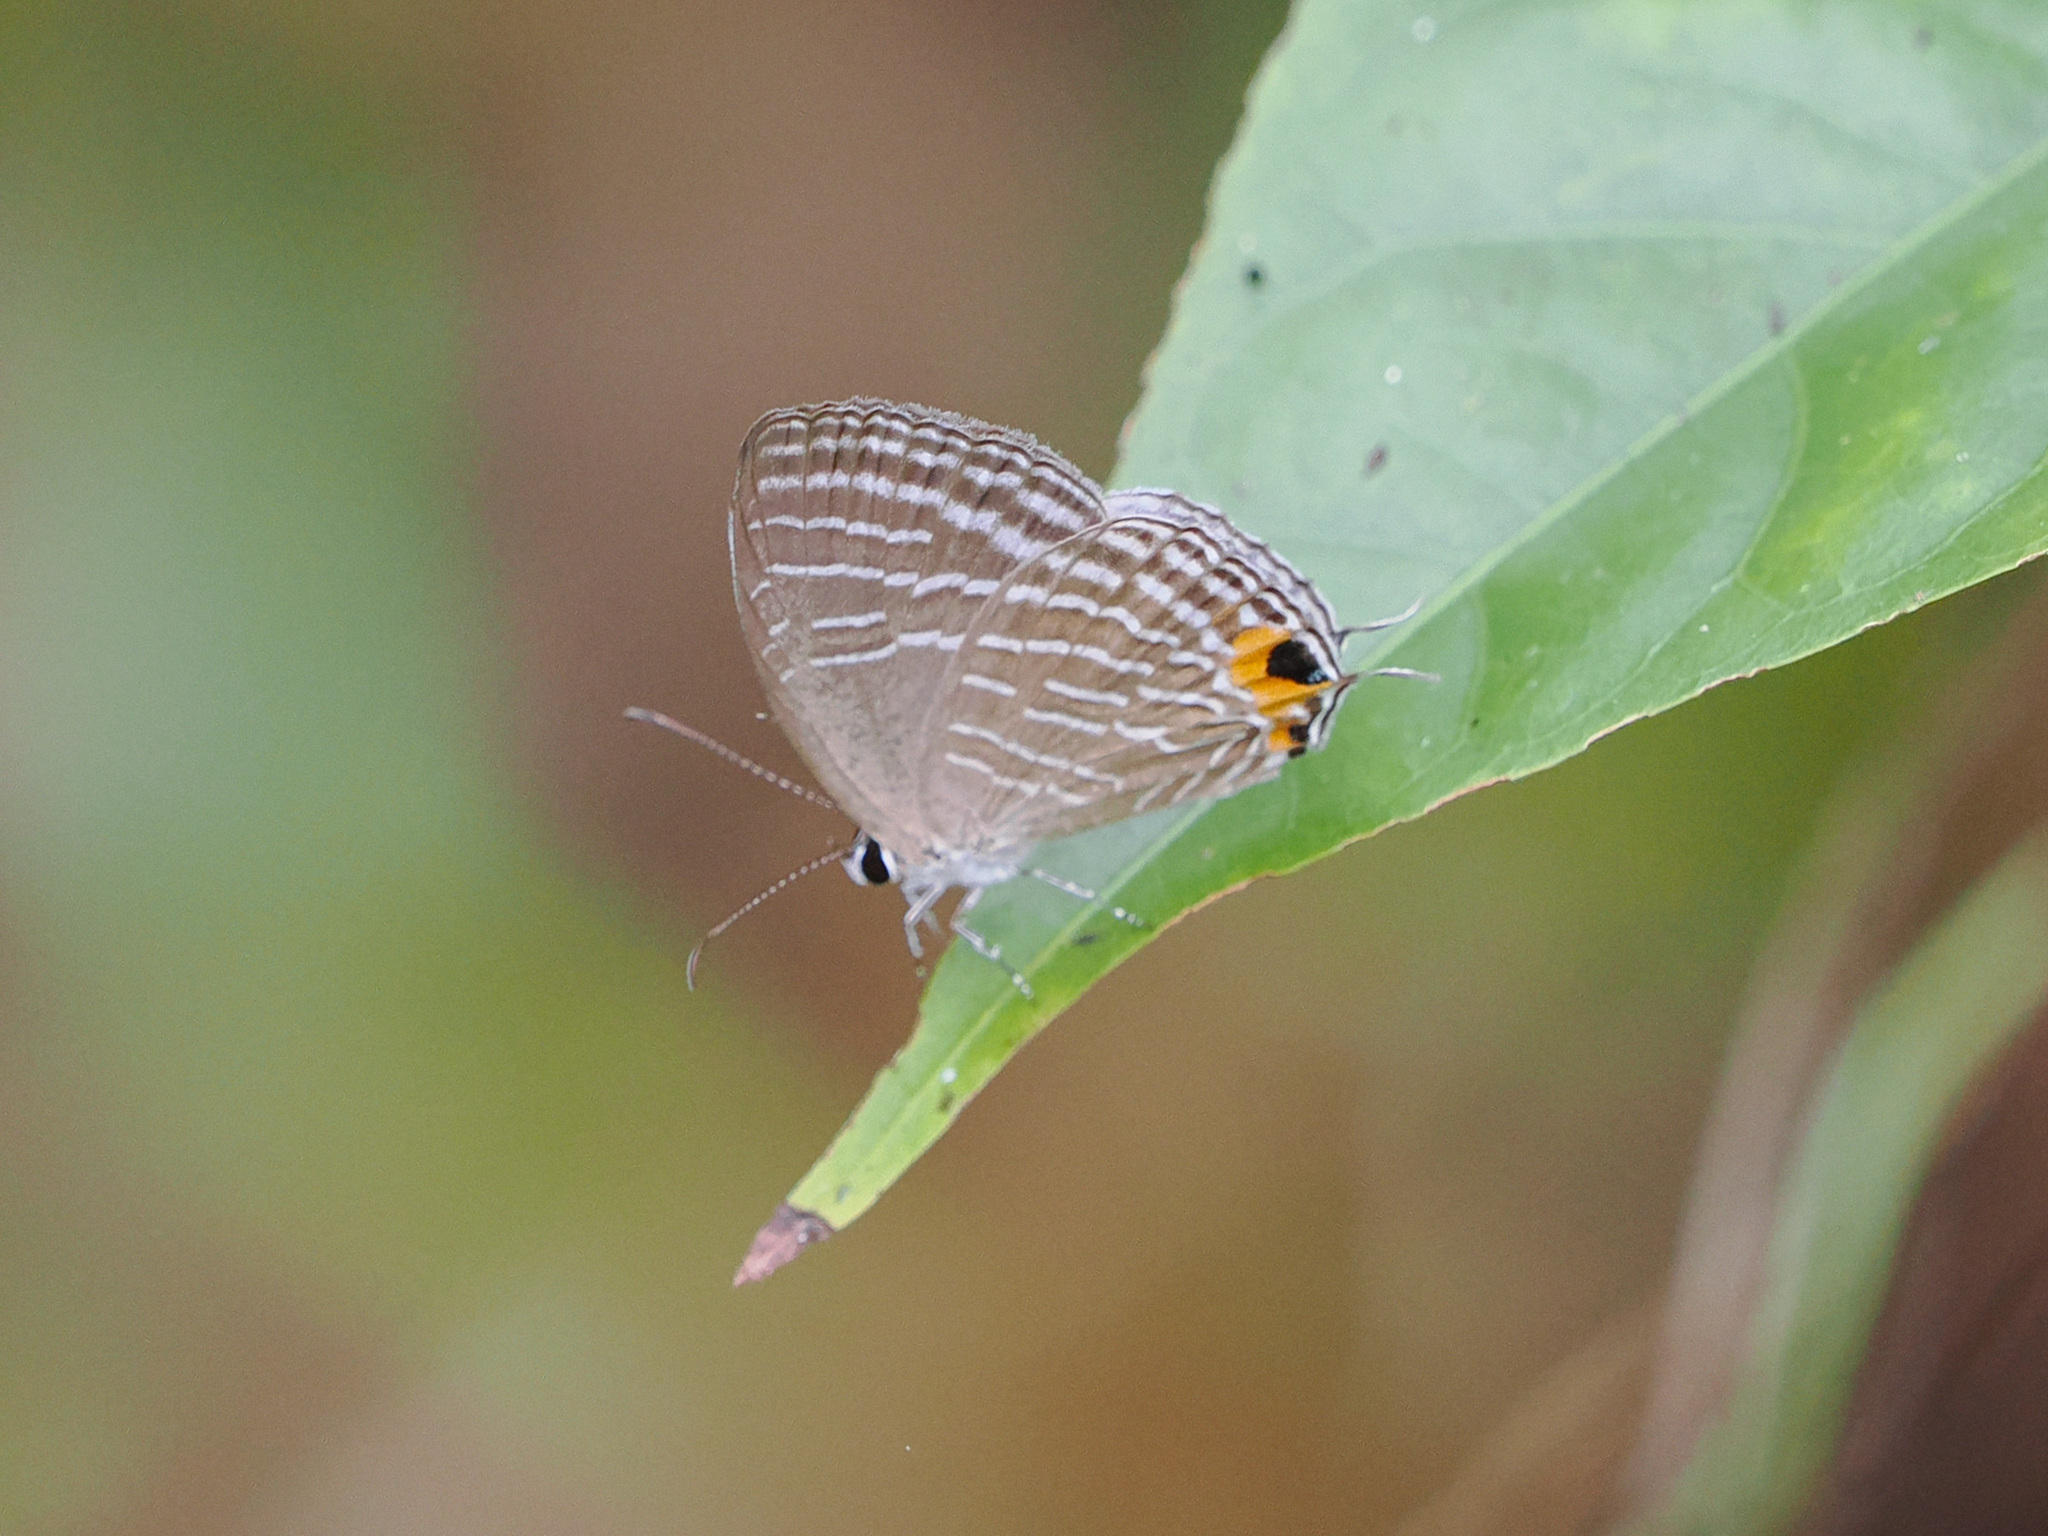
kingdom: Animalia
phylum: Arthropoda
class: Insecta
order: Lepidoptera
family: Lycaenidae
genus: Jamides
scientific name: Jamides celeno
